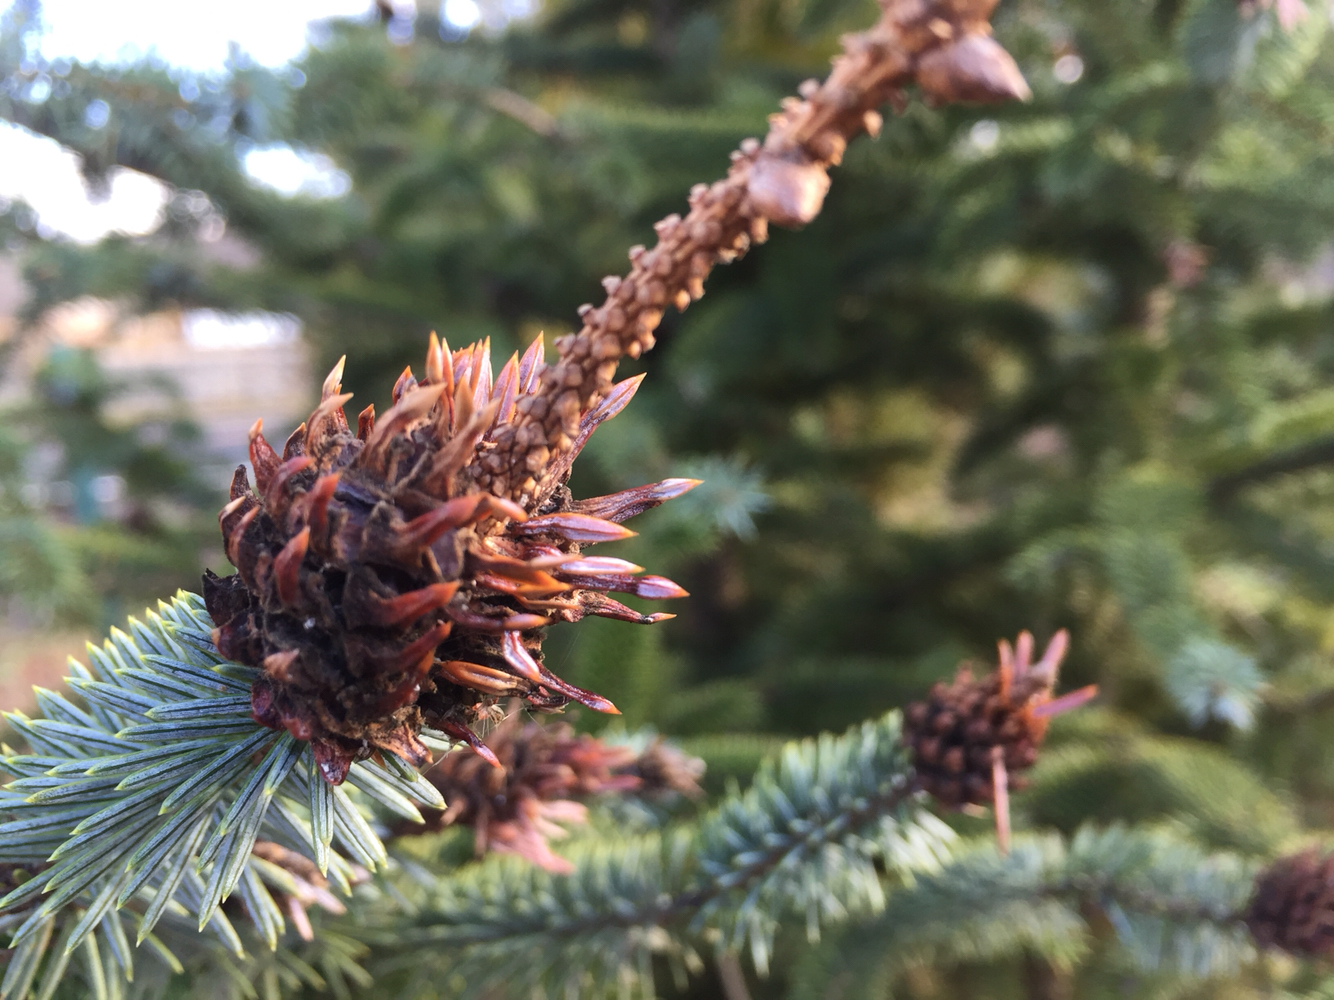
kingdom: Animalia
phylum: Arthropoda
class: Insecta
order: Hemiptera
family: Adelgidae
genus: Adelges
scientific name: Adelges abietis
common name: Eastern spruce gall adelgid
